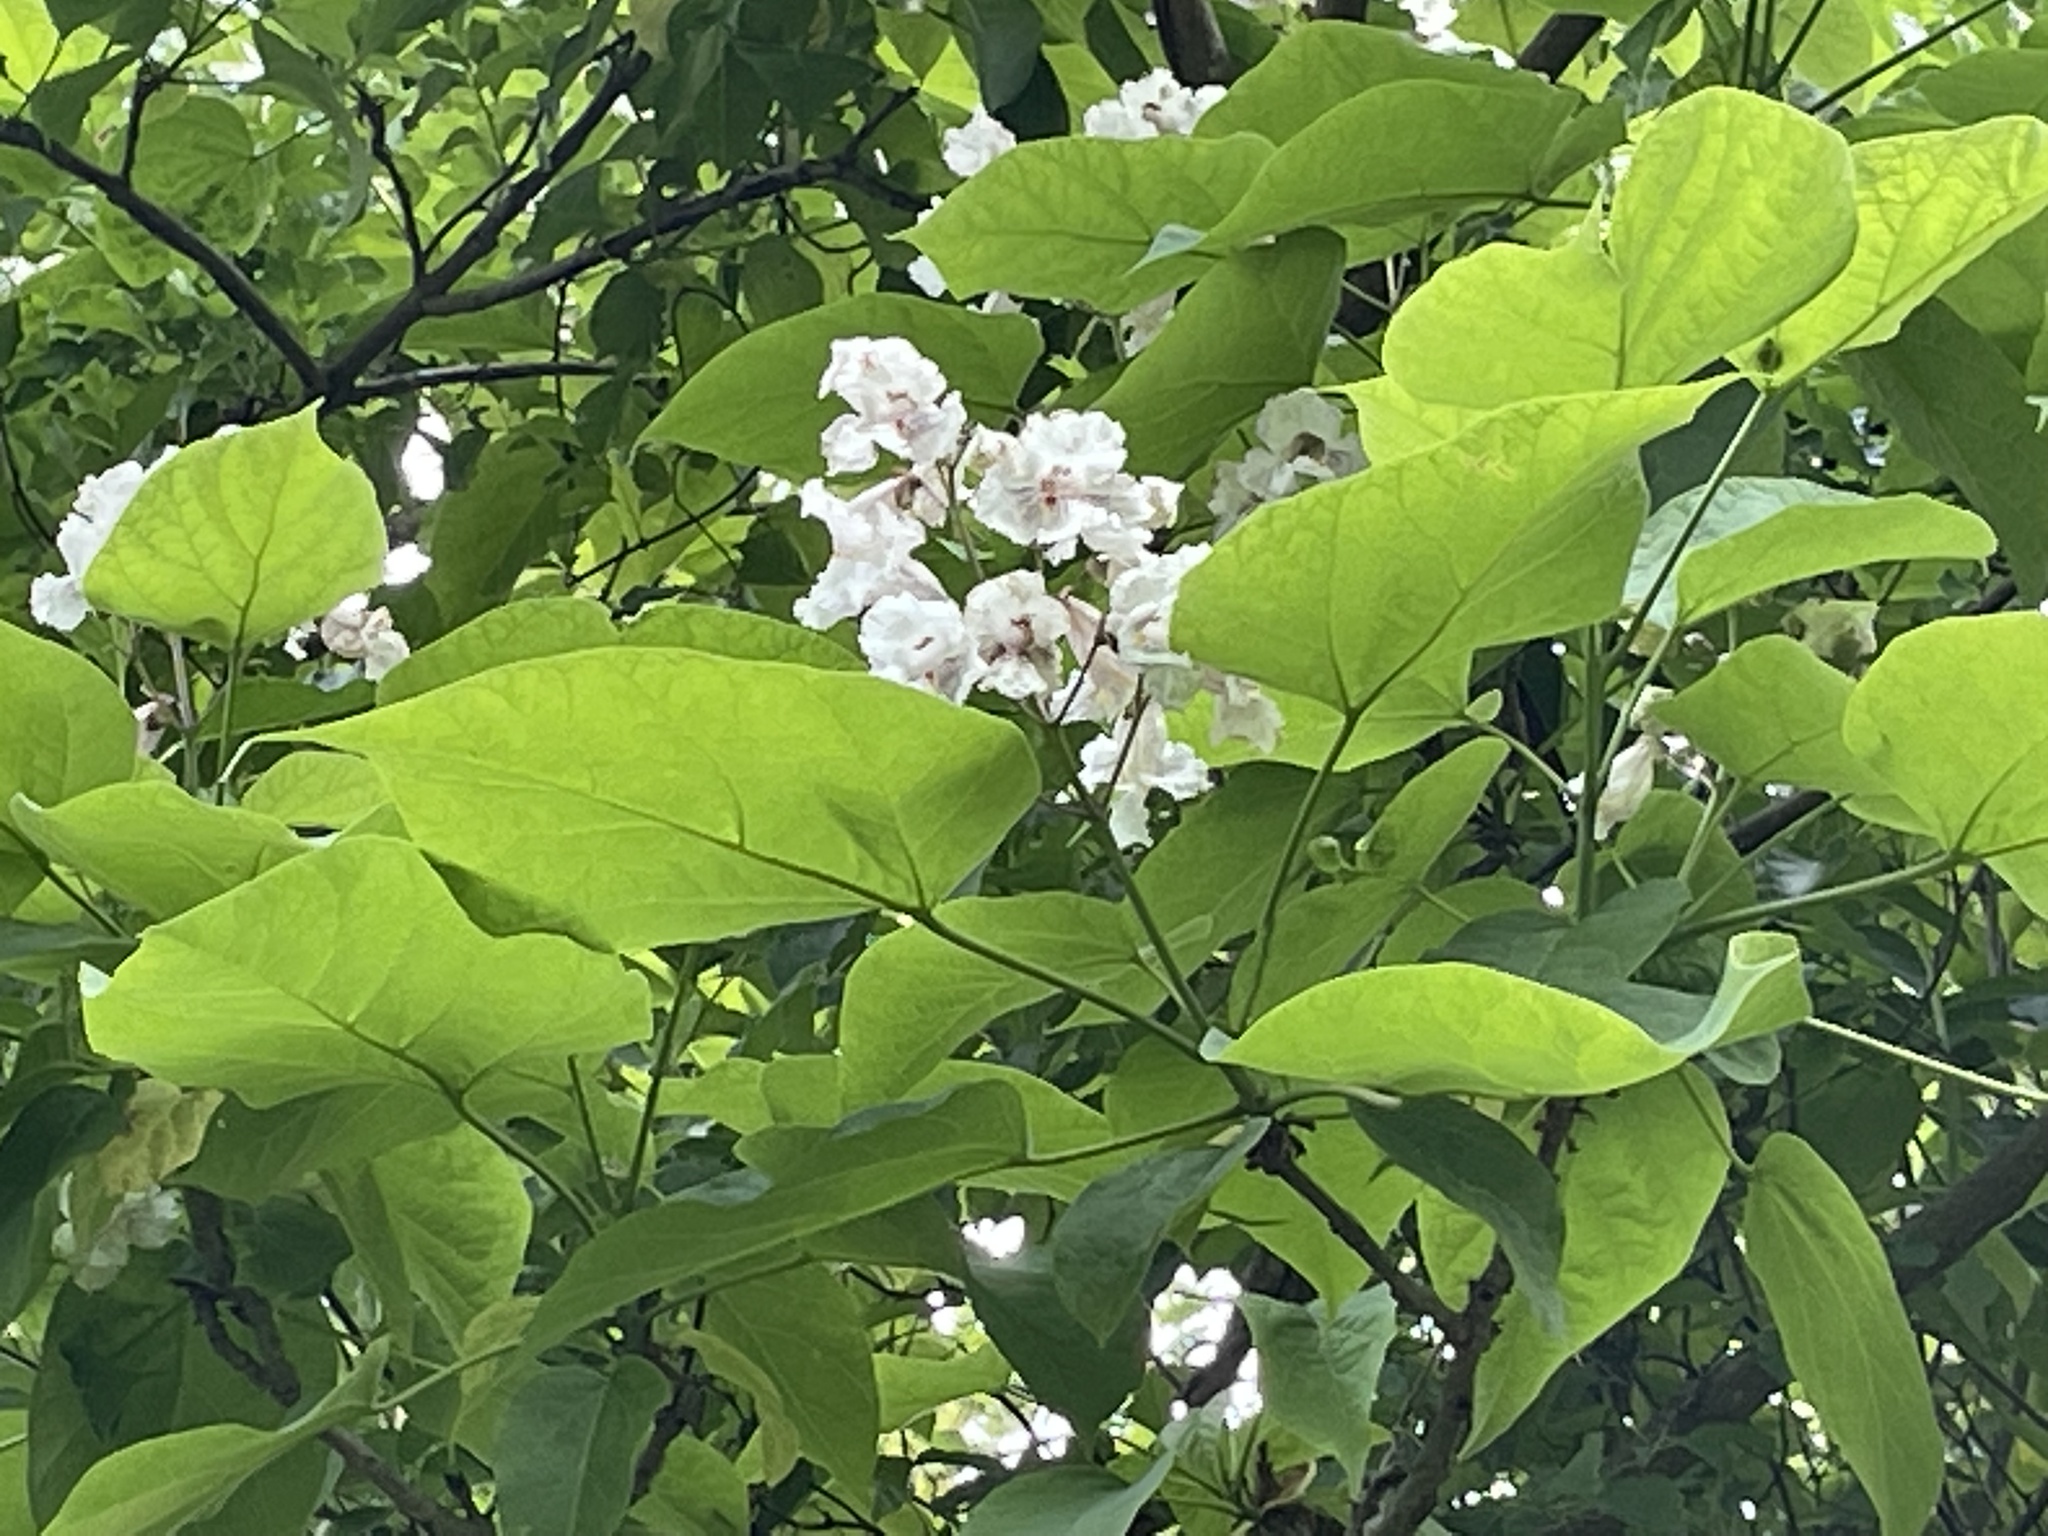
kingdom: Plantae
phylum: Tracheophyta
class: Magnoliopsida
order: Lamiales
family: Bignoniaceae
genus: Catalpa
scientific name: Catalpa speciosa
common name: Northern catalpa
